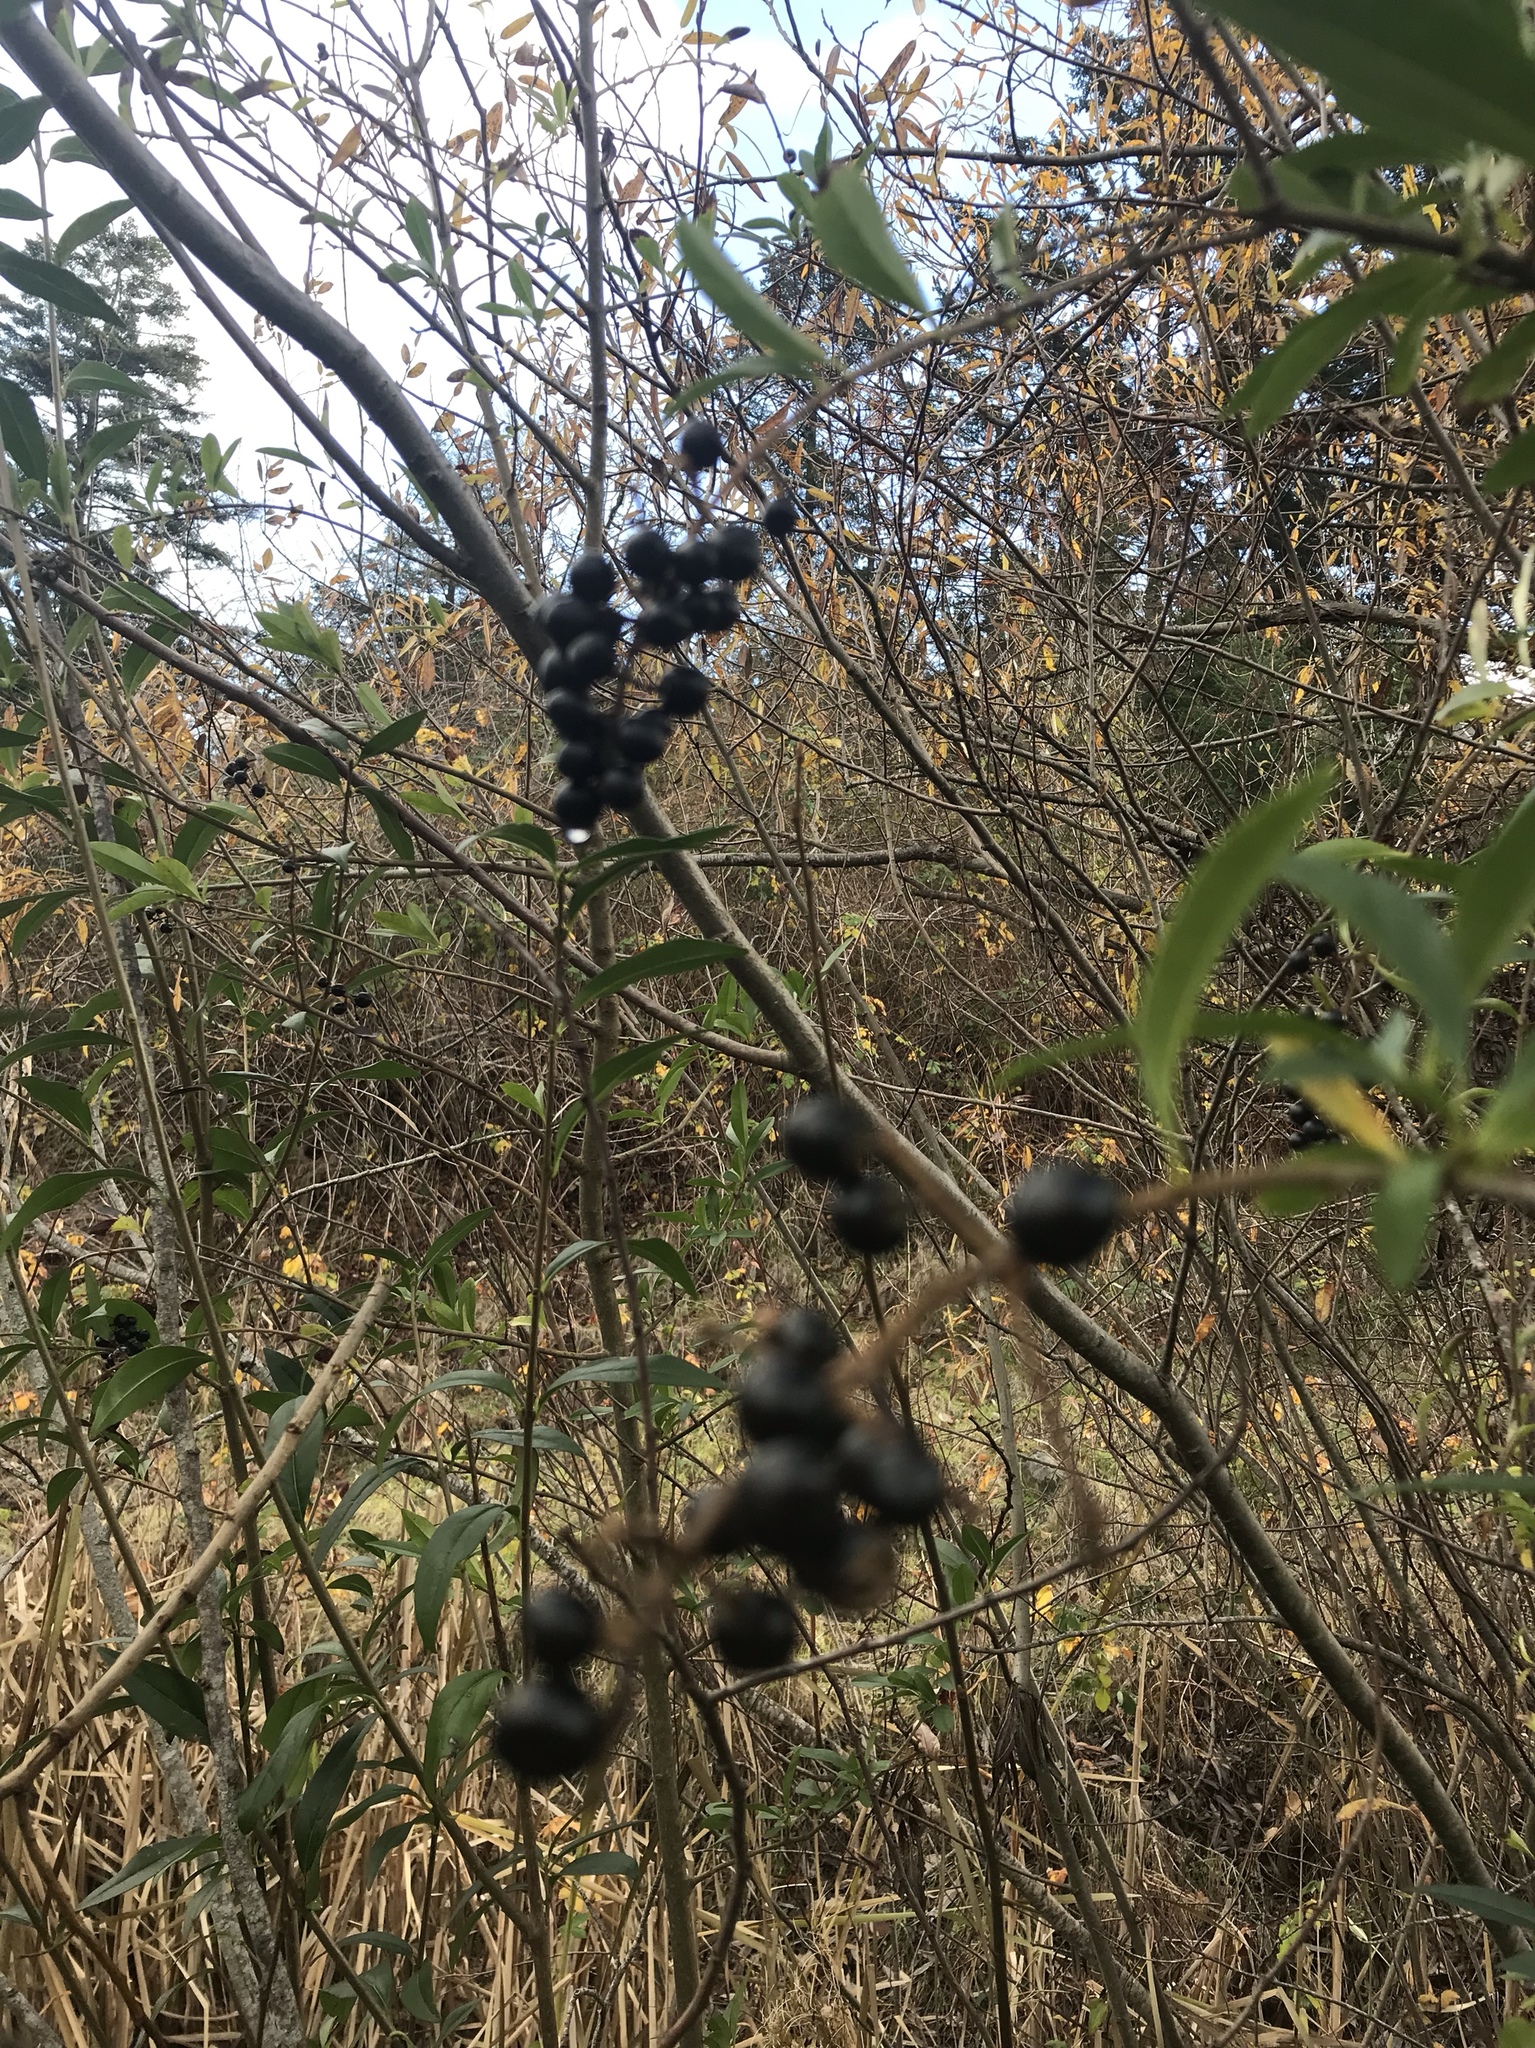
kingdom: Plantae
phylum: Tracheophyta
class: Magnoliopsida
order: Lamiales
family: Oleaceae
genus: Ligustrum
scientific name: Ligustrum vulgare
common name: Wild privet
